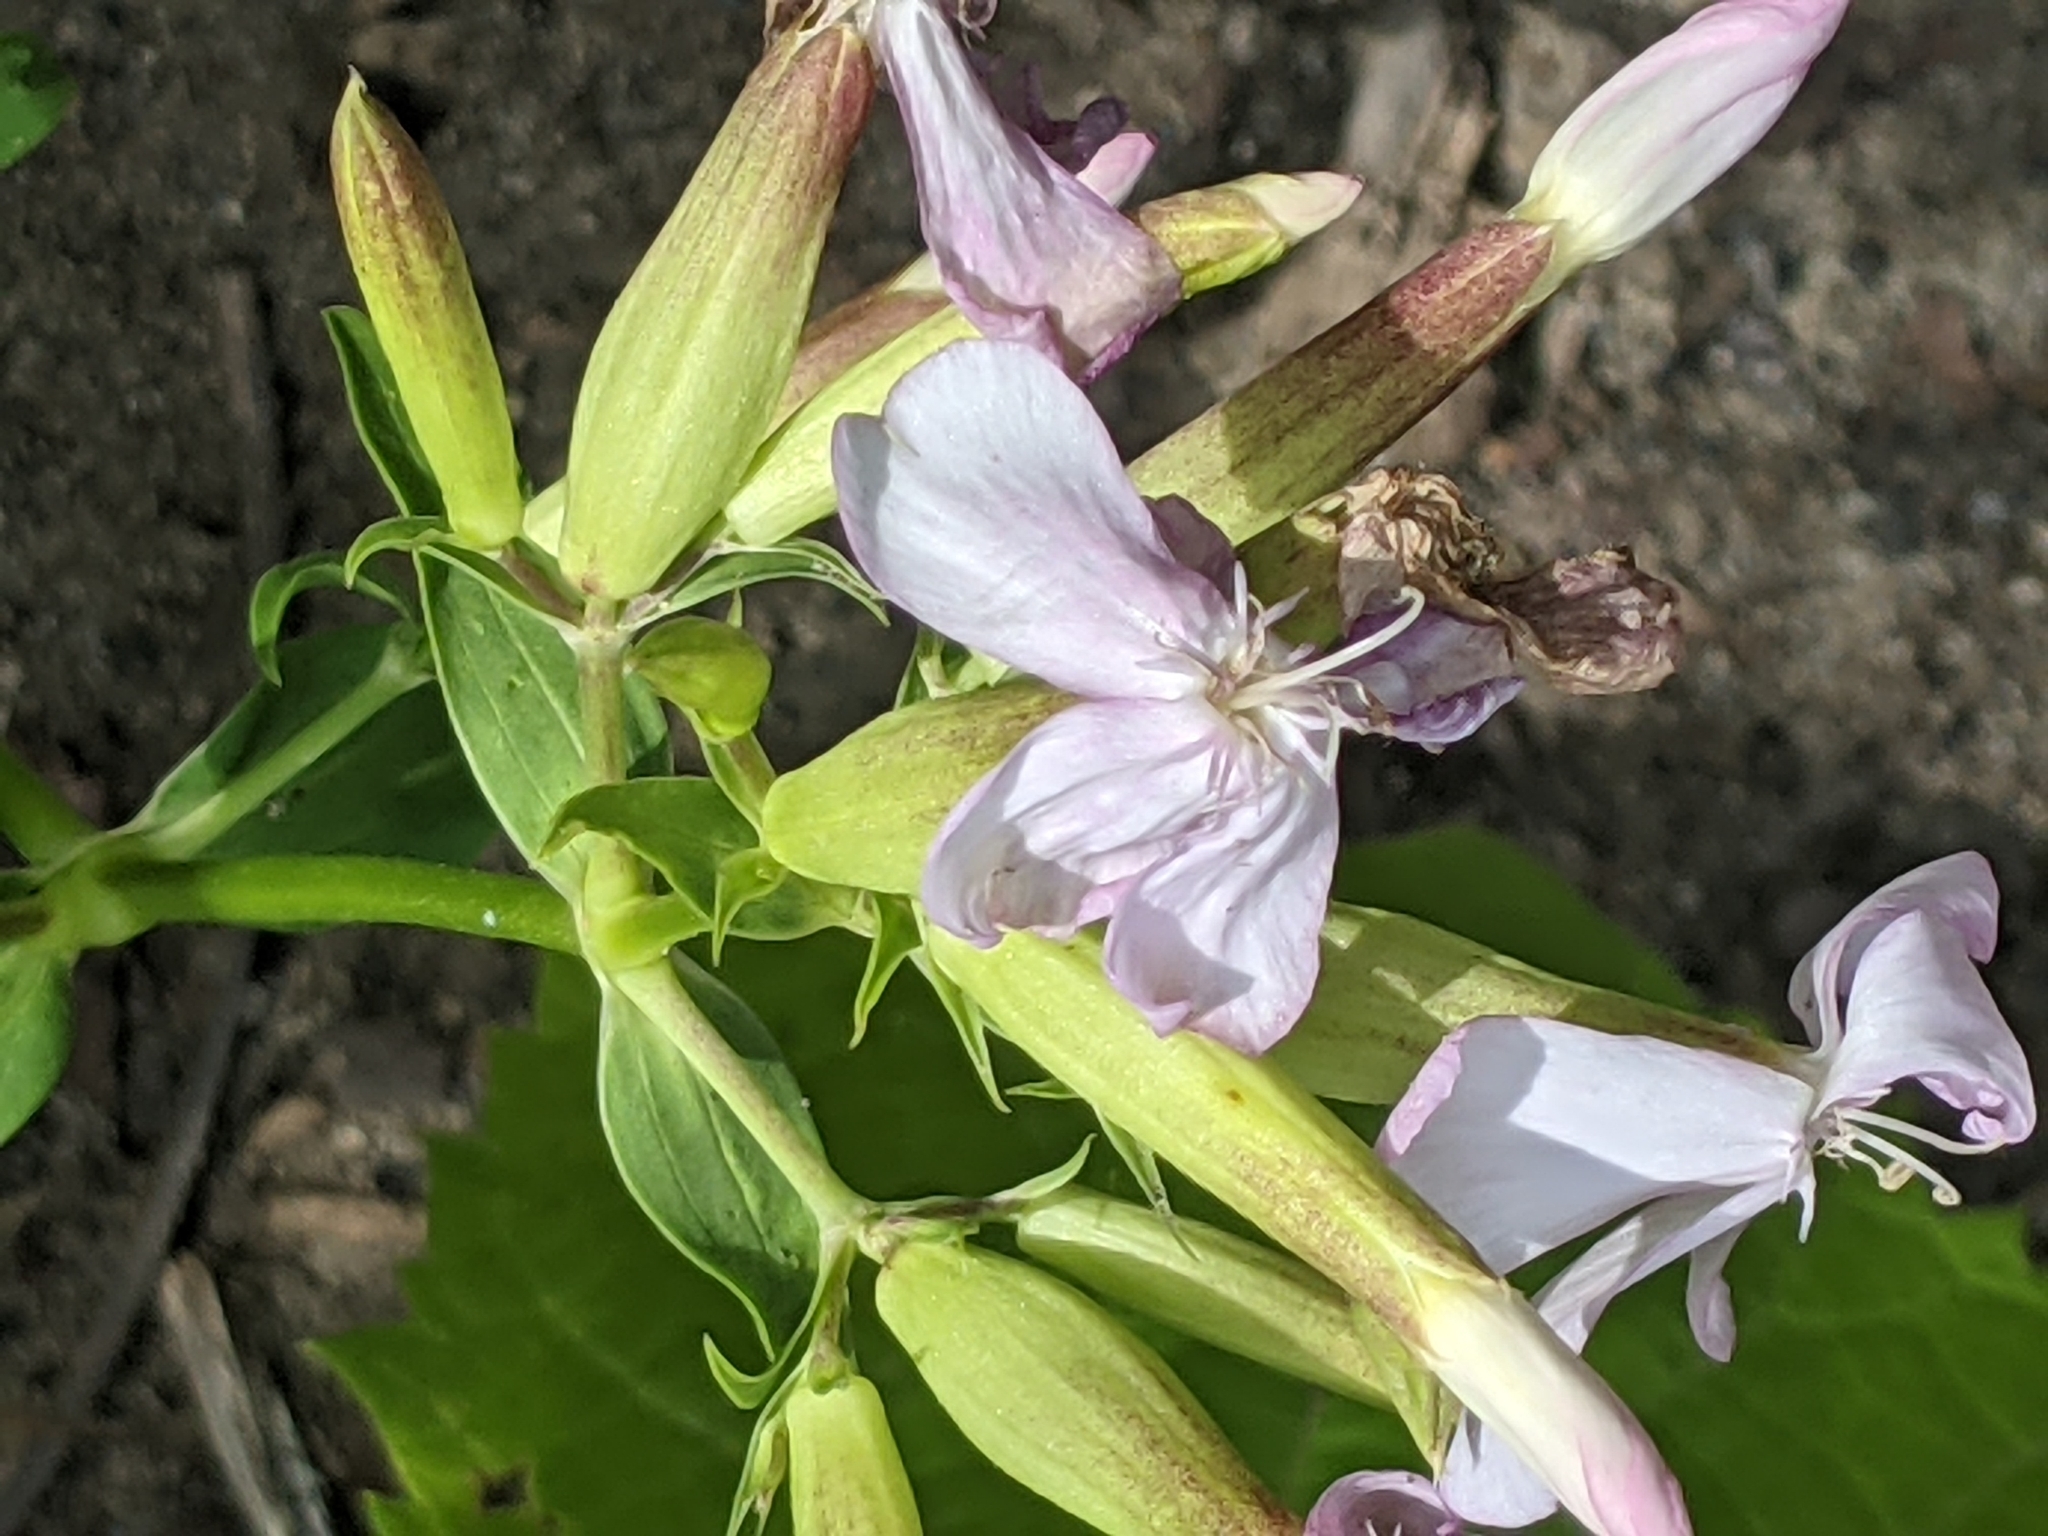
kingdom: Plantae
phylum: Tracheophyta
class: Magnoliopsida
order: Caryophyllales
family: Caryophyllaceae
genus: Saponaria
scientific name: Saponaria officinalis
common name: Soapwort
